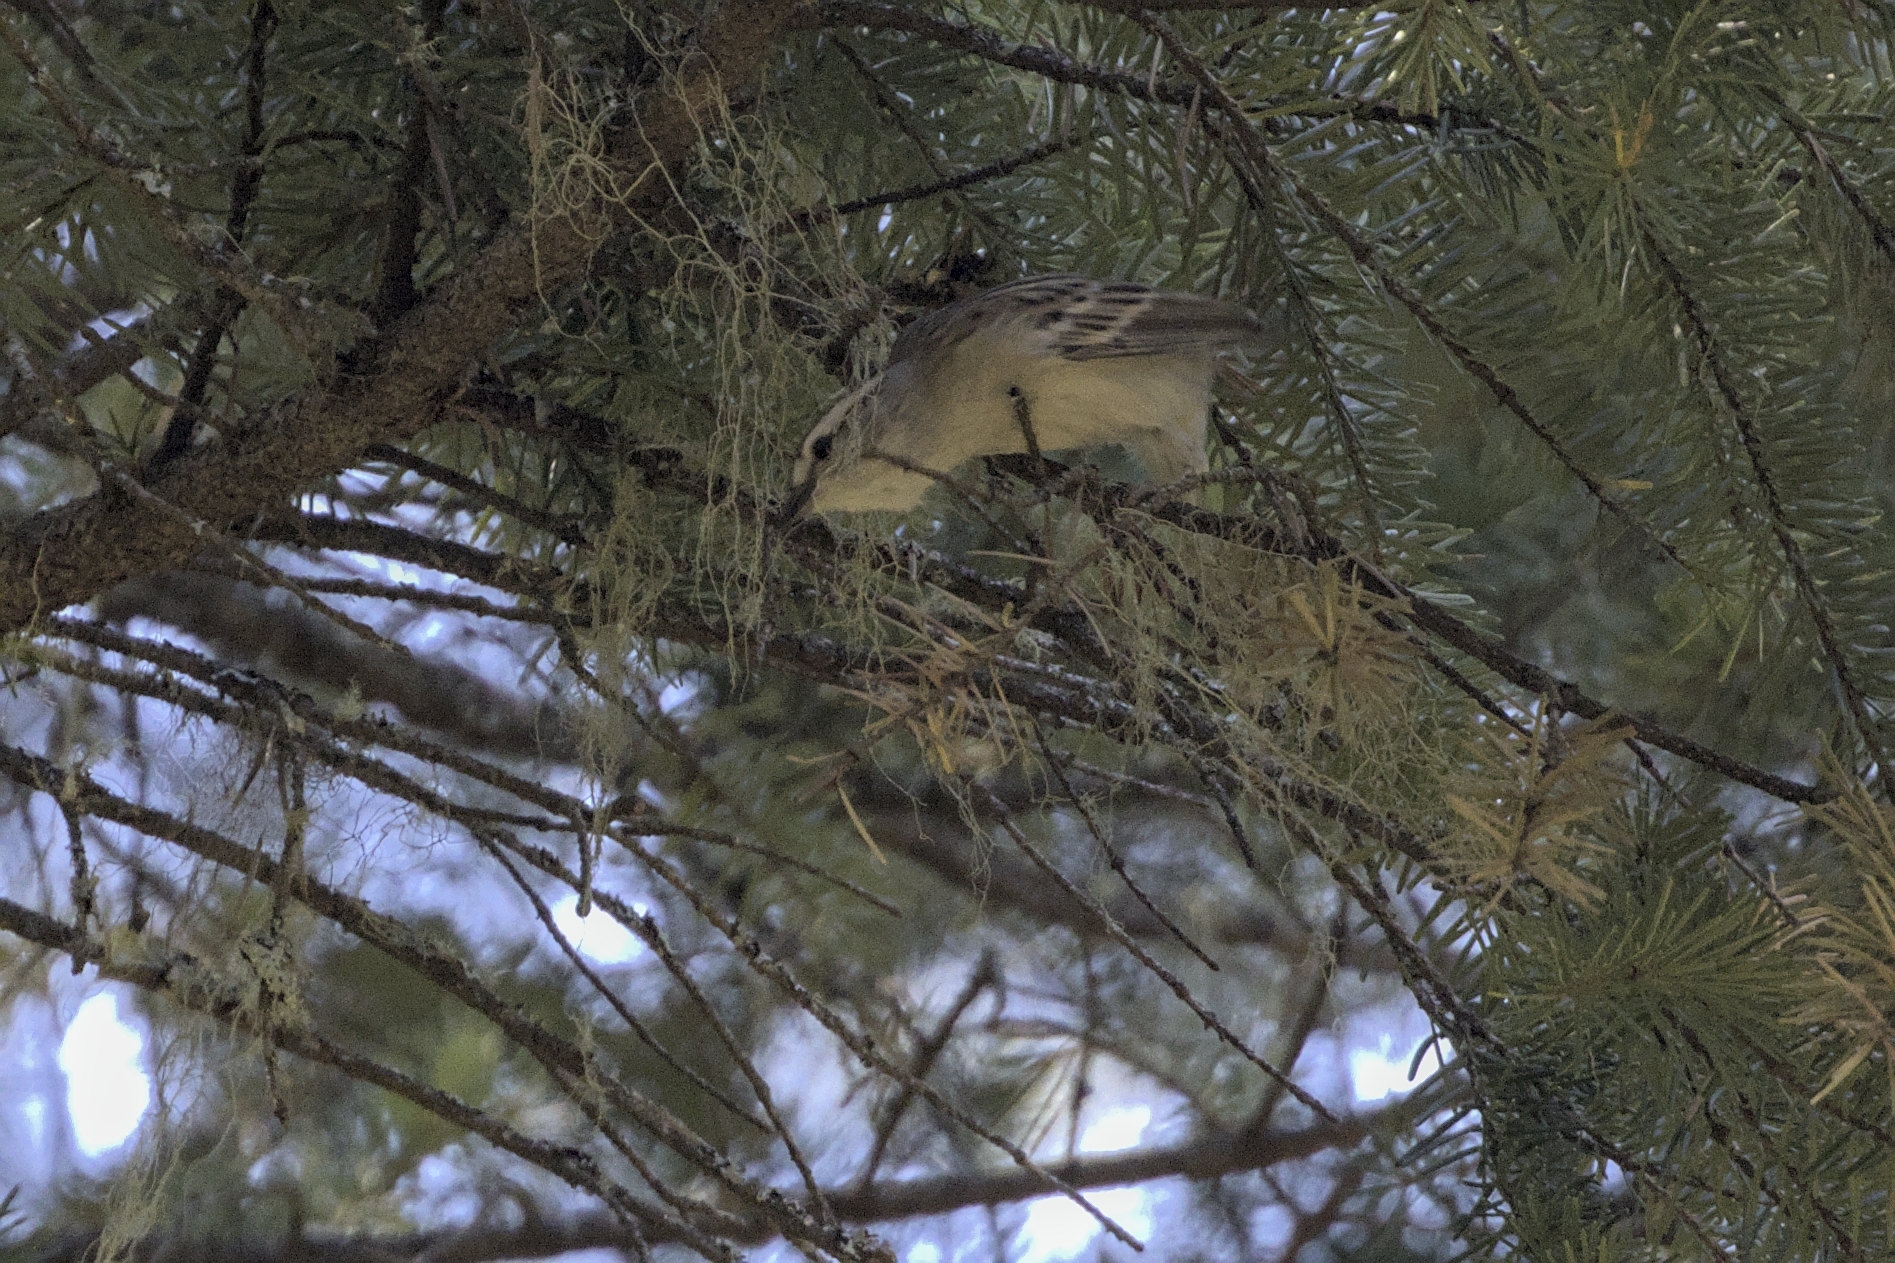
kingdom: Animalia
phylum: Chordata
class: Aves
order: Passeriformes
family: Passerellidae
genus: Spizella
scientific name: Spizella passerina
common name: Chipping sparrow
